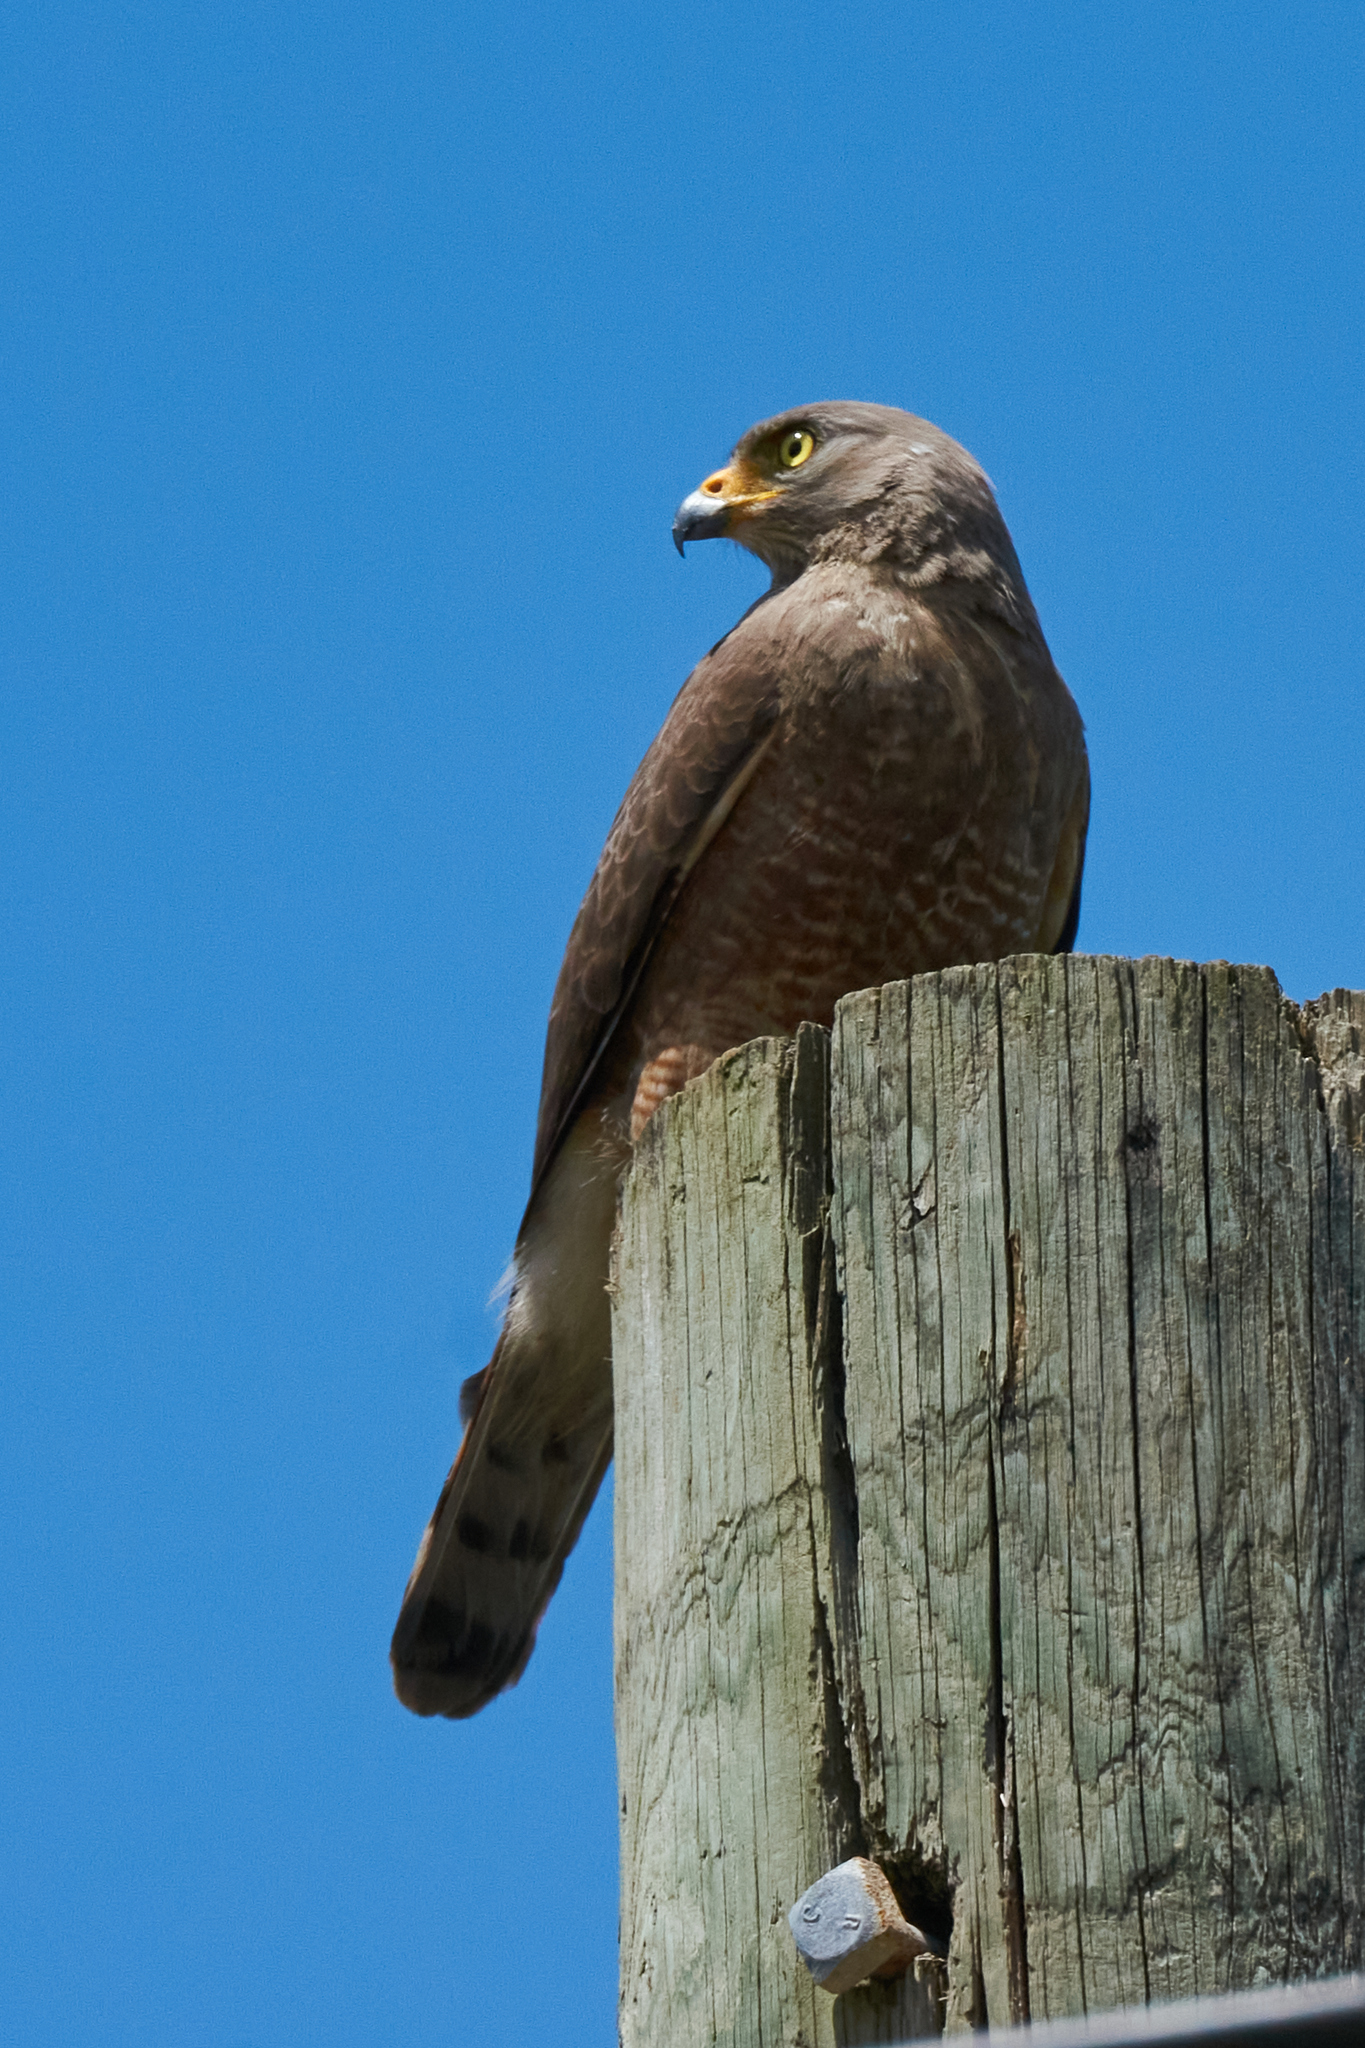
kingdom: Animalia
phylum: Chordata
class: Aves
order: Accipitriformes
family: Accipitridae
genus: Rupornis
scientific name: Rupornis magnirostris
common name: Roadside hawk
